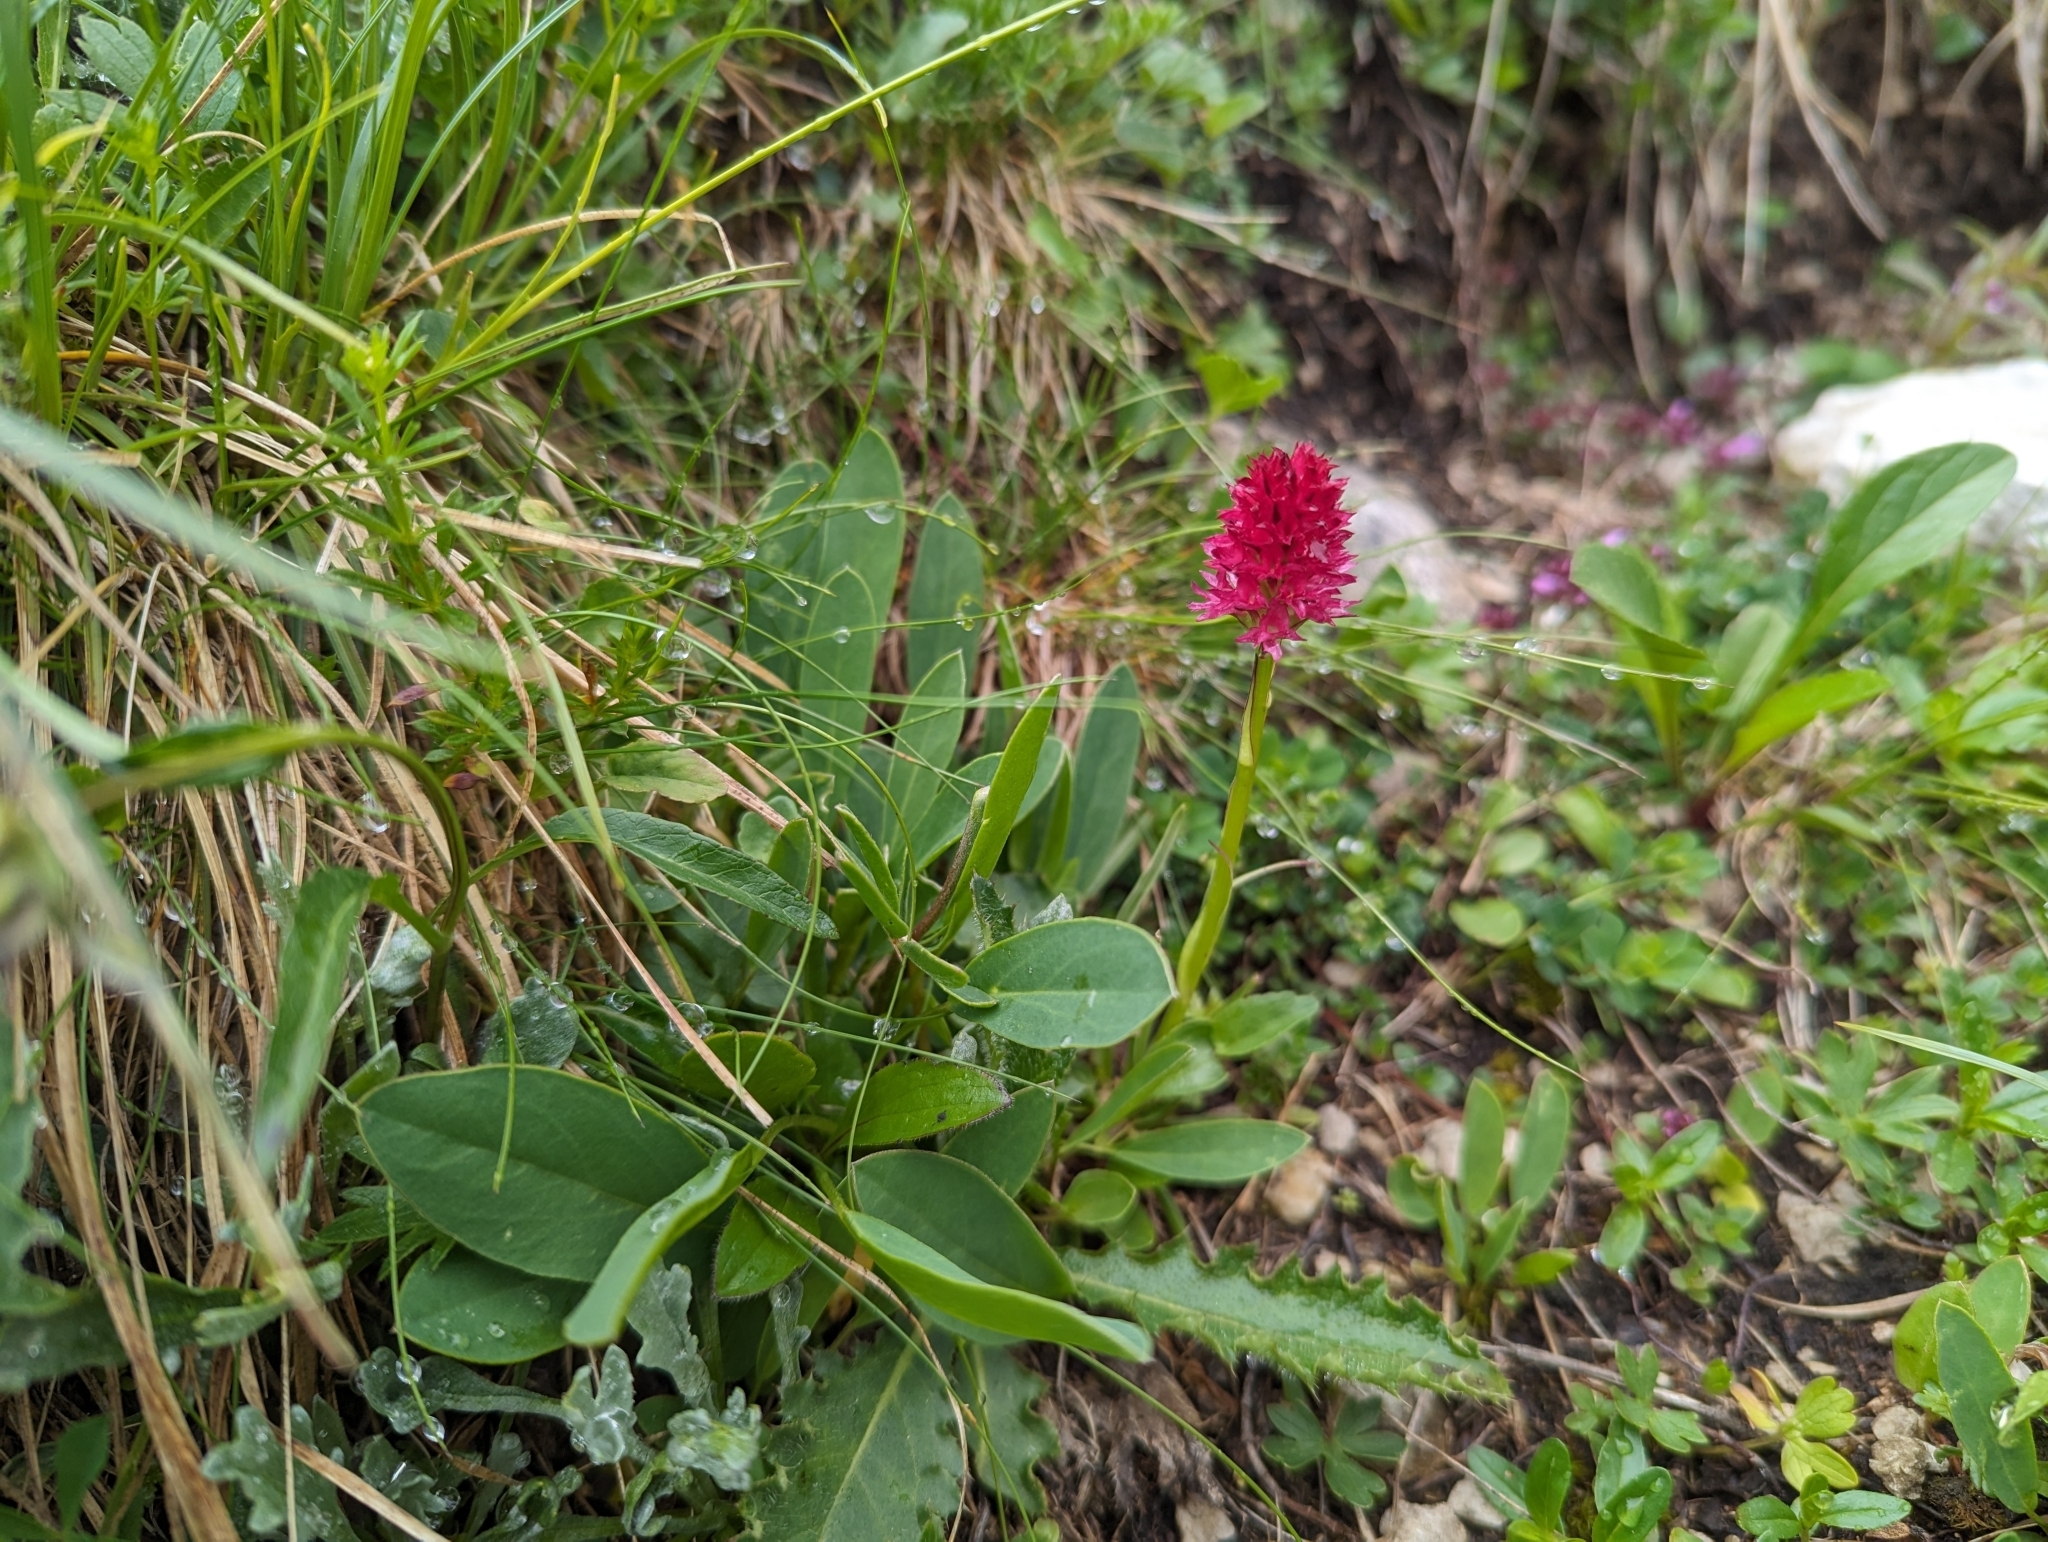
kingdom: Plantae
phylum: Tracheophyta
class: Liliopsida
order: Asparagales
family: Orchidaceae
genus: Gymnadenia
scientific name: Gymnadenia miniata
